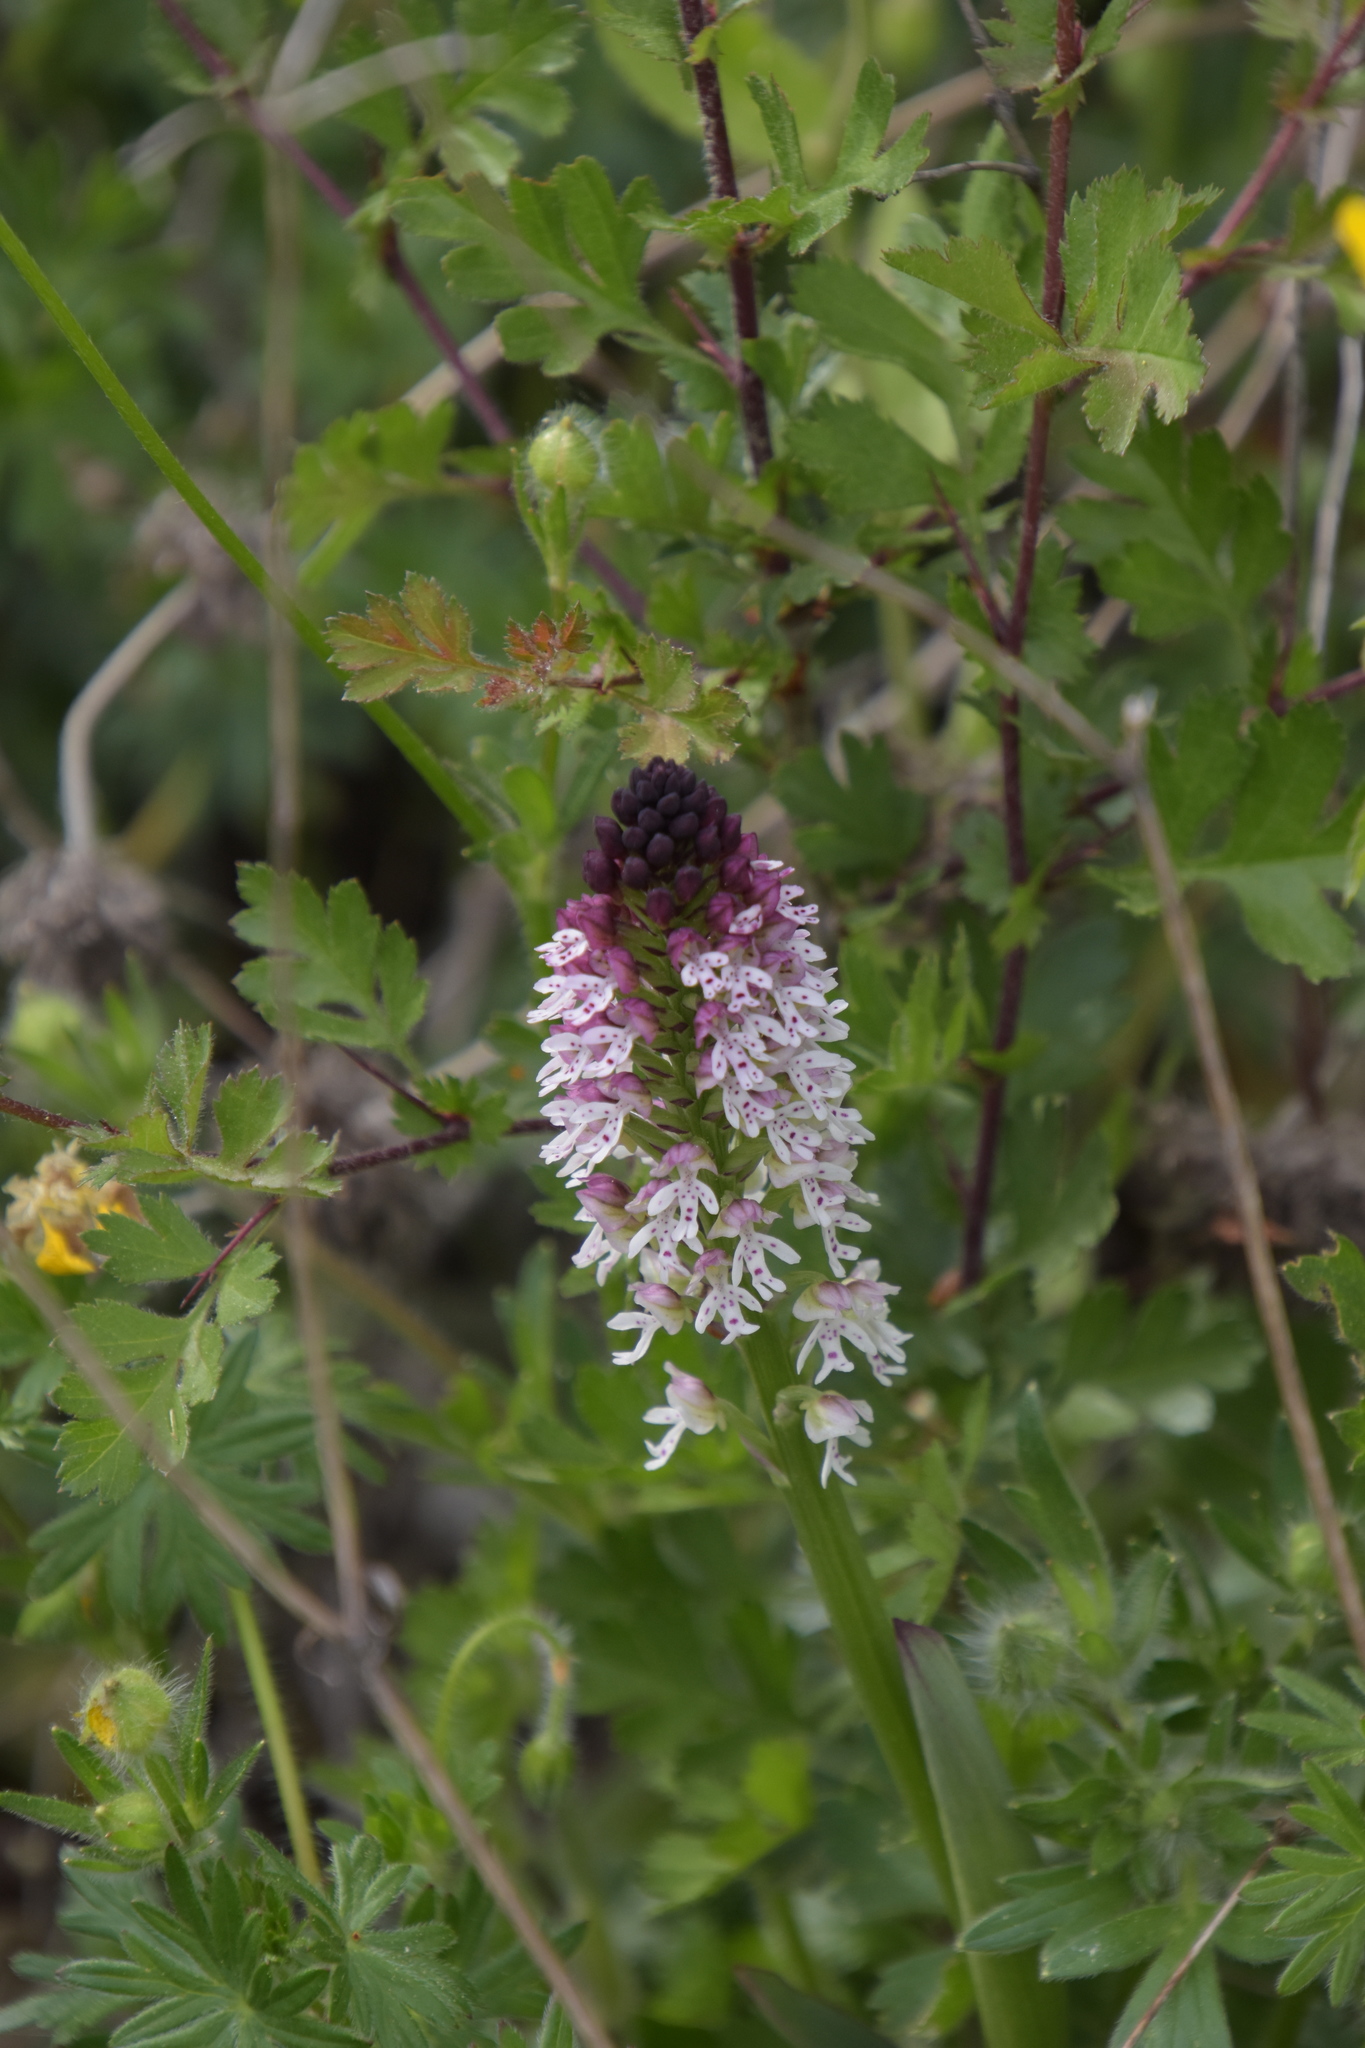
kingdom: Plantae
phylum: Tracheophyta
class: Liliopsida
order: Asparagales
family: Orchidaceae
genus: Neotinea
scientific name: Neotinea ustulata
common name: Burnt orchid
